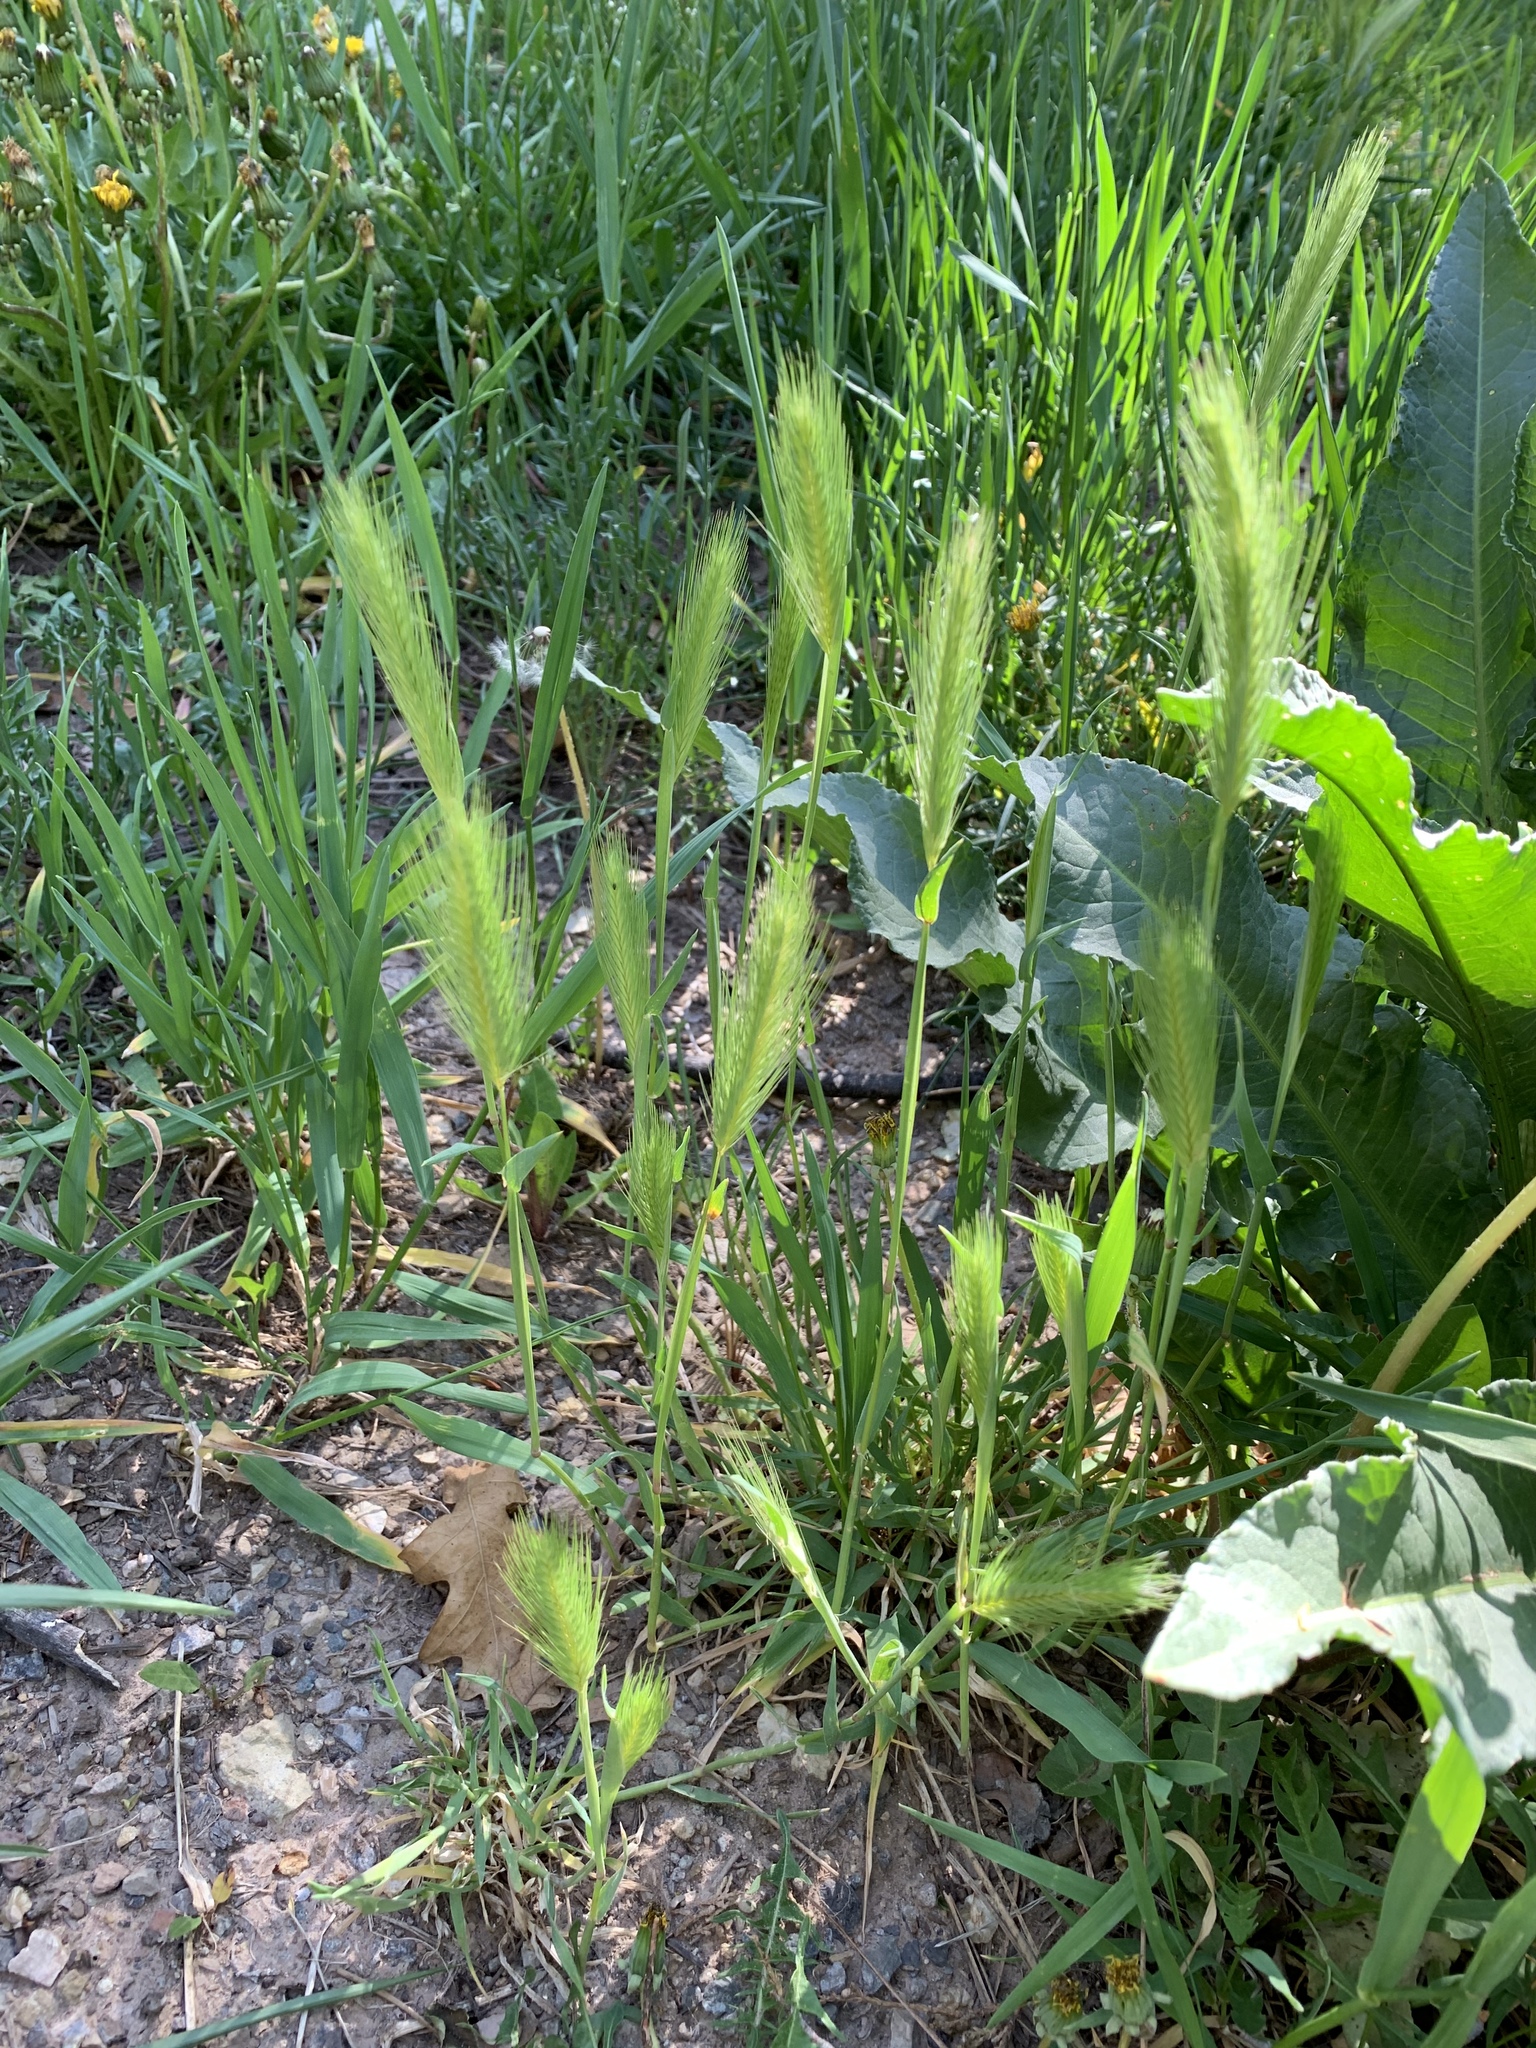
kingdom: Plantae
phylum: Tracheophyta
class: Liliopsida
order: Poales
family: Poaceae
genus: Hordeum
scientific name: Hordeum murinum
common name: Wall barley
